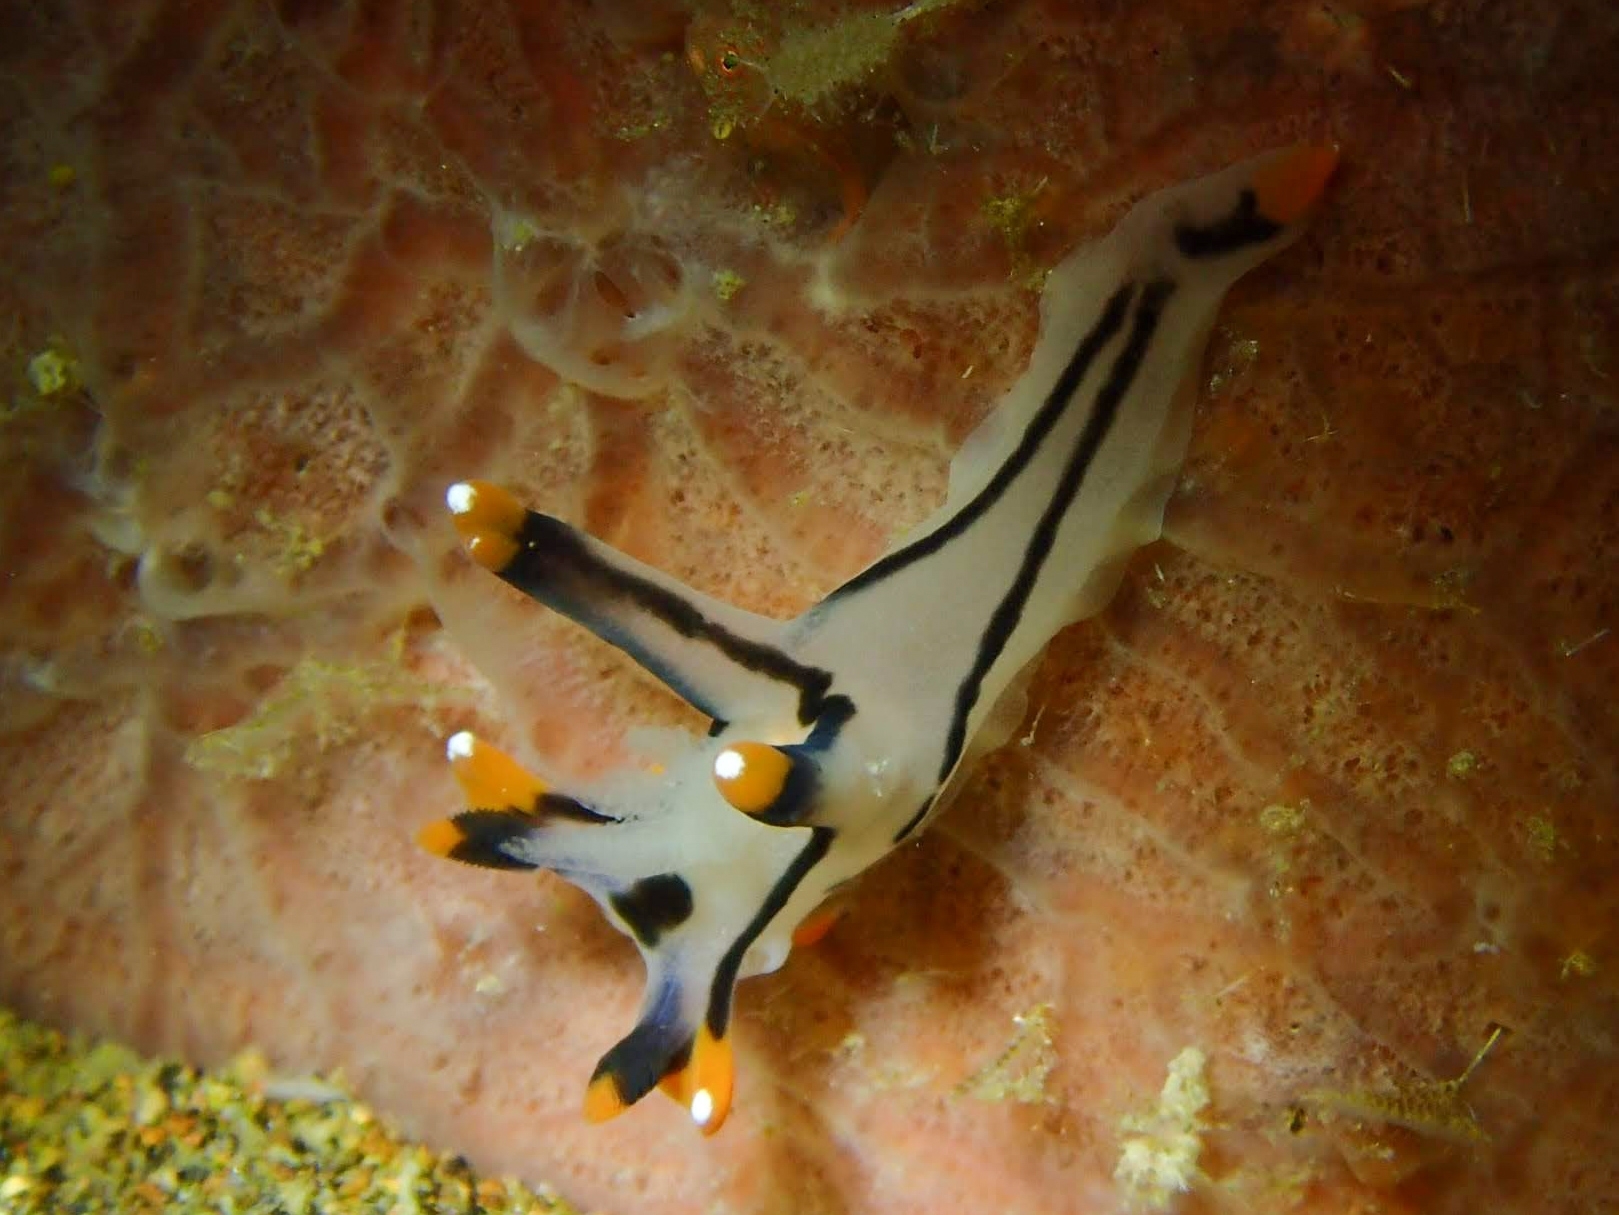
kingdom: Animalia
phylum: Mollusca
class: Gastropoda
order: Nudibranchia
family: Polyceridae
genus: Thecacera
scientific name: Thecacera picta
